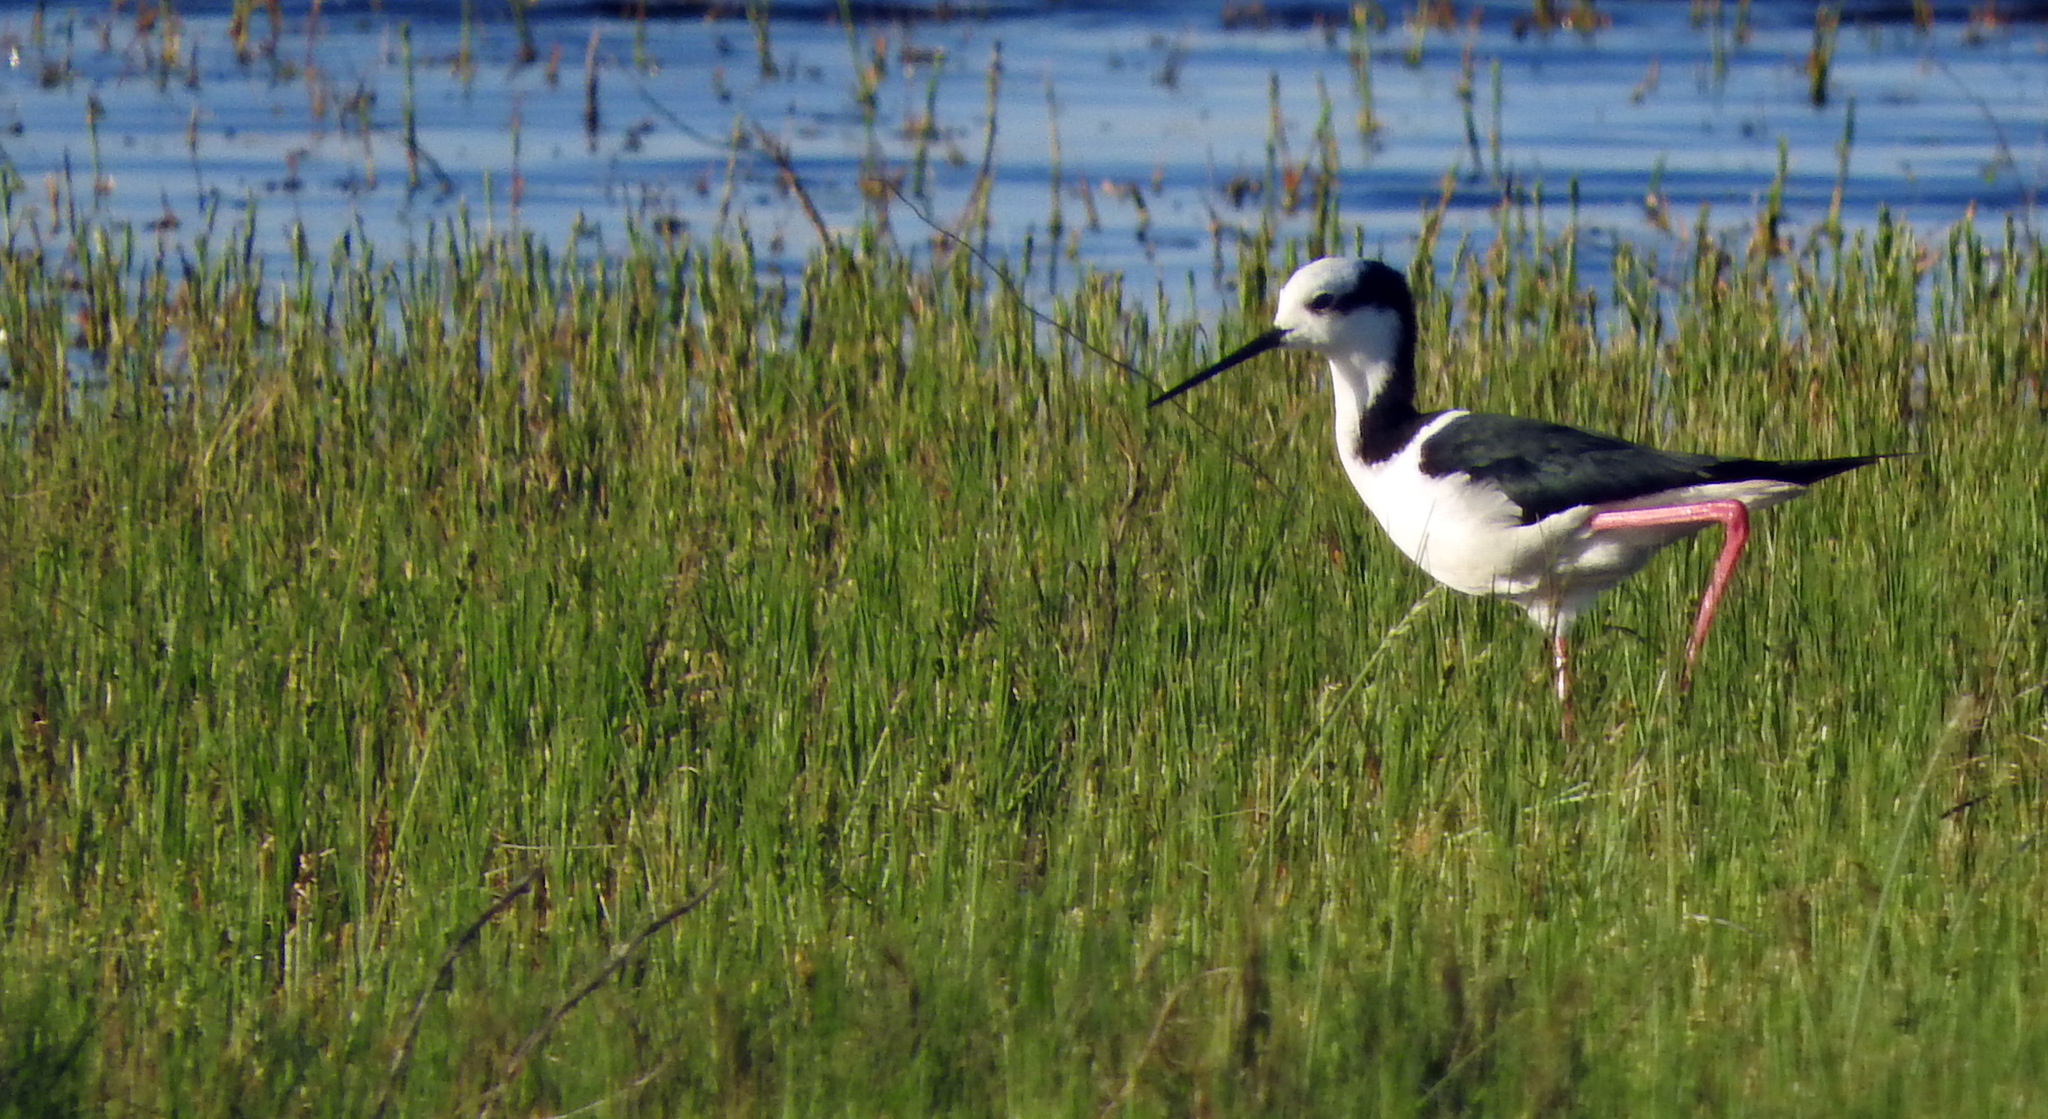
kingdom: Animalia
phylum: Chordata
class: Aves
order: Charadriiformes
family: Recurvirostridae
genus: Himantopus
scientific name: Himantopus mexicanus
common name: Black-necked stilt
